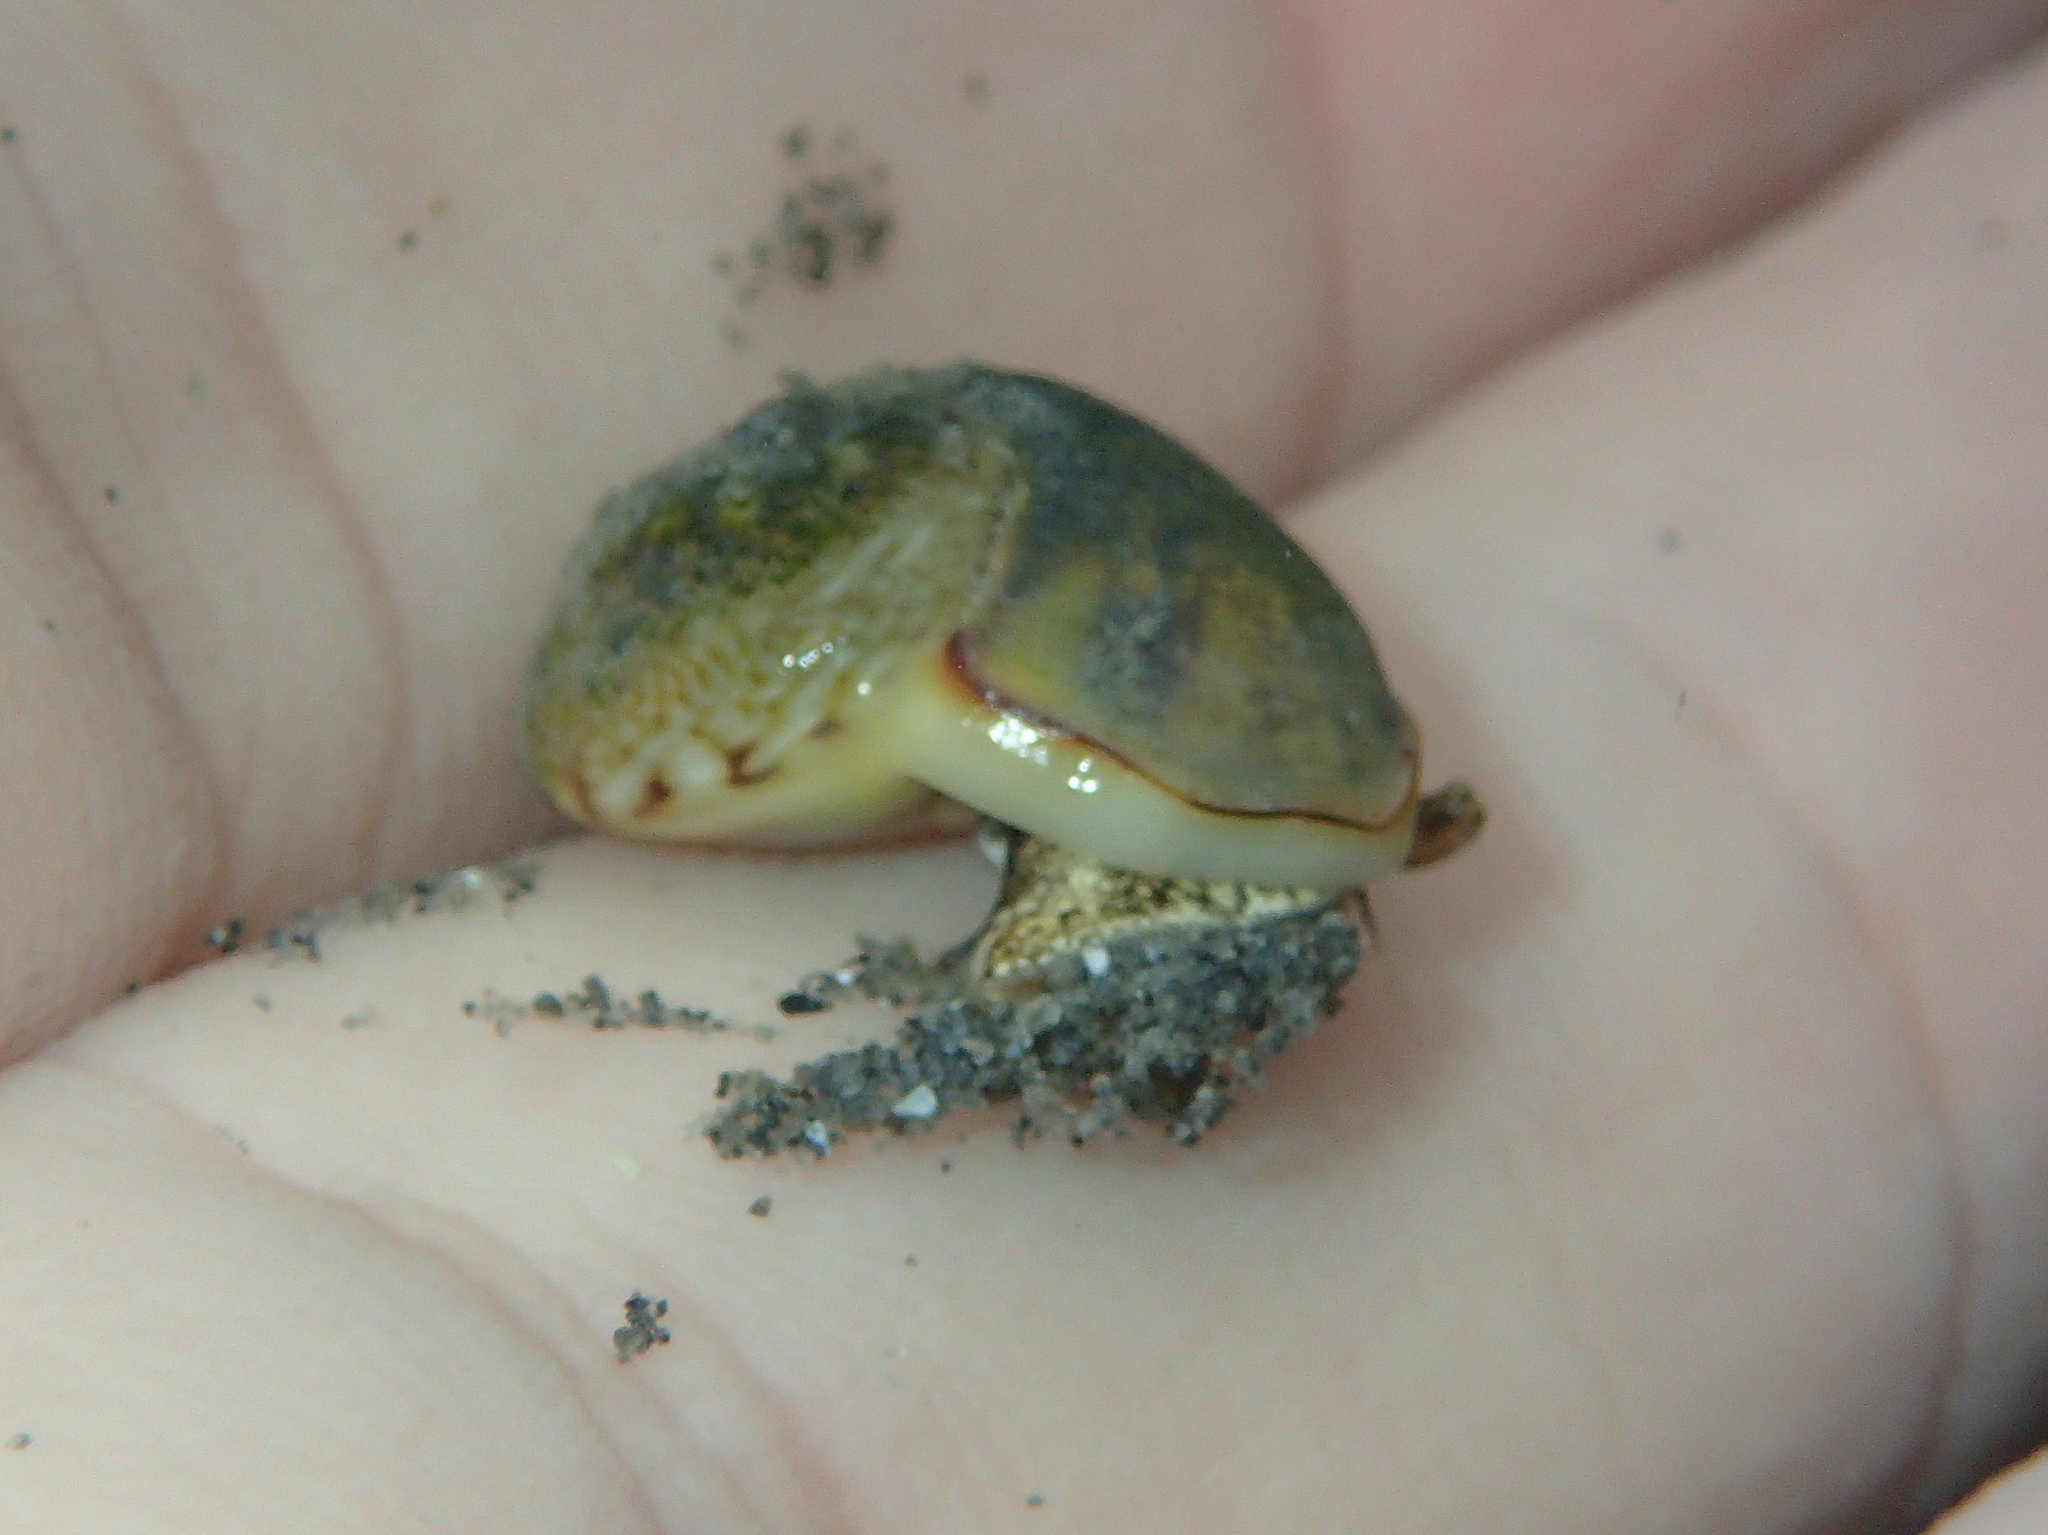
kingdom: Animalia
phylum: Mollusca
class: Gastropoda
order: Neogastropoda
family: Nassariidae
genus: Tritia
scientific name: Tritia neritea
